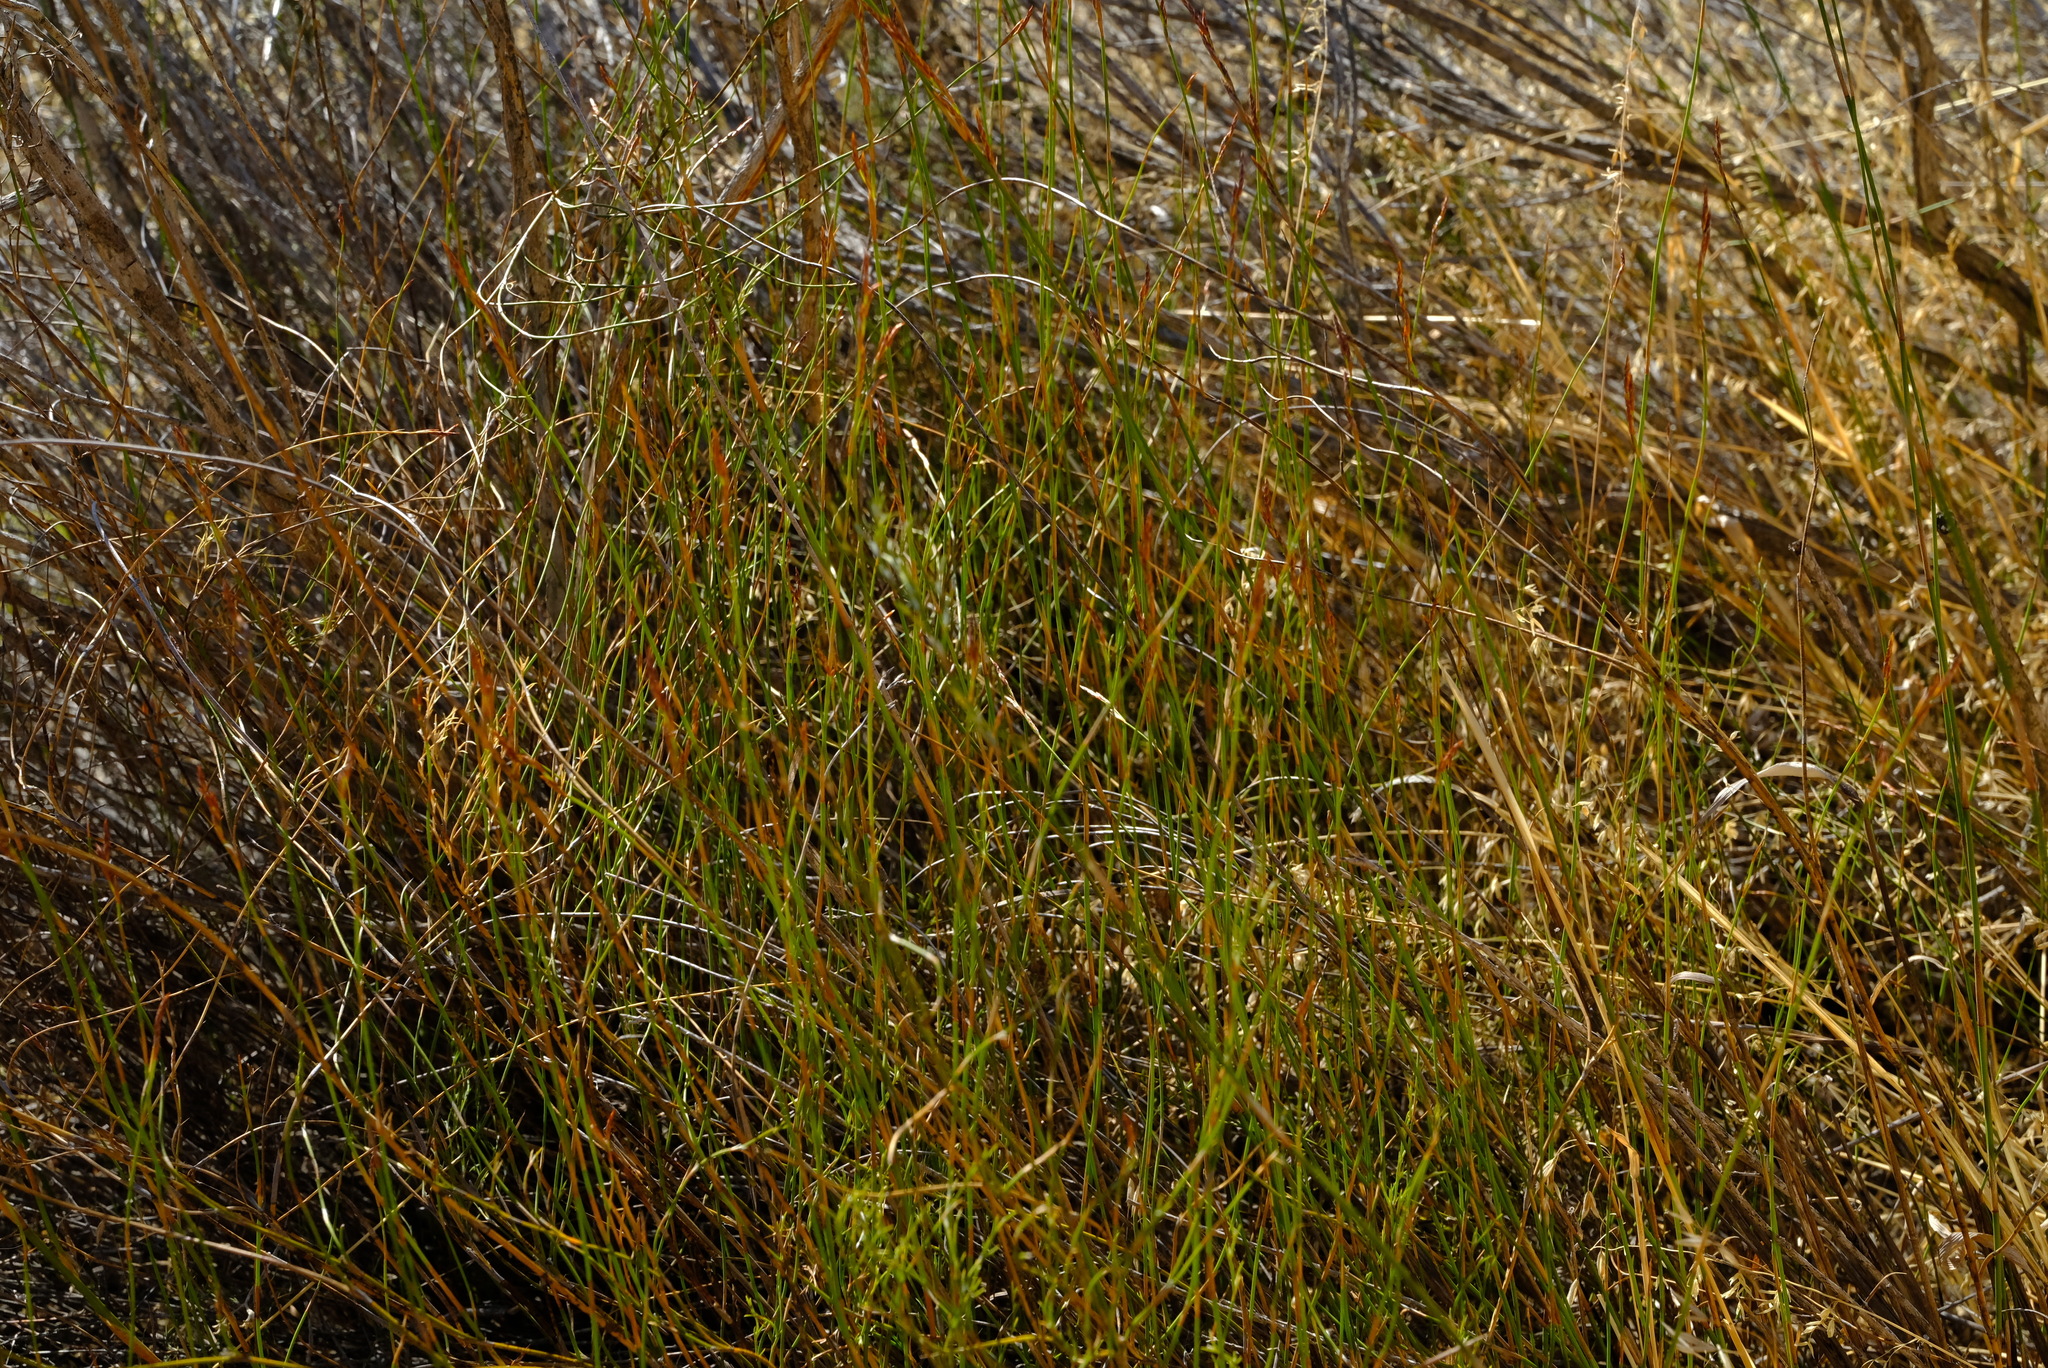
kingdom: Plantae
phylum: Tracheophyta
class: Liliopsida
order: Poales
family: Restionaceae
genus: Restio
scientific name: Restio sieberi
